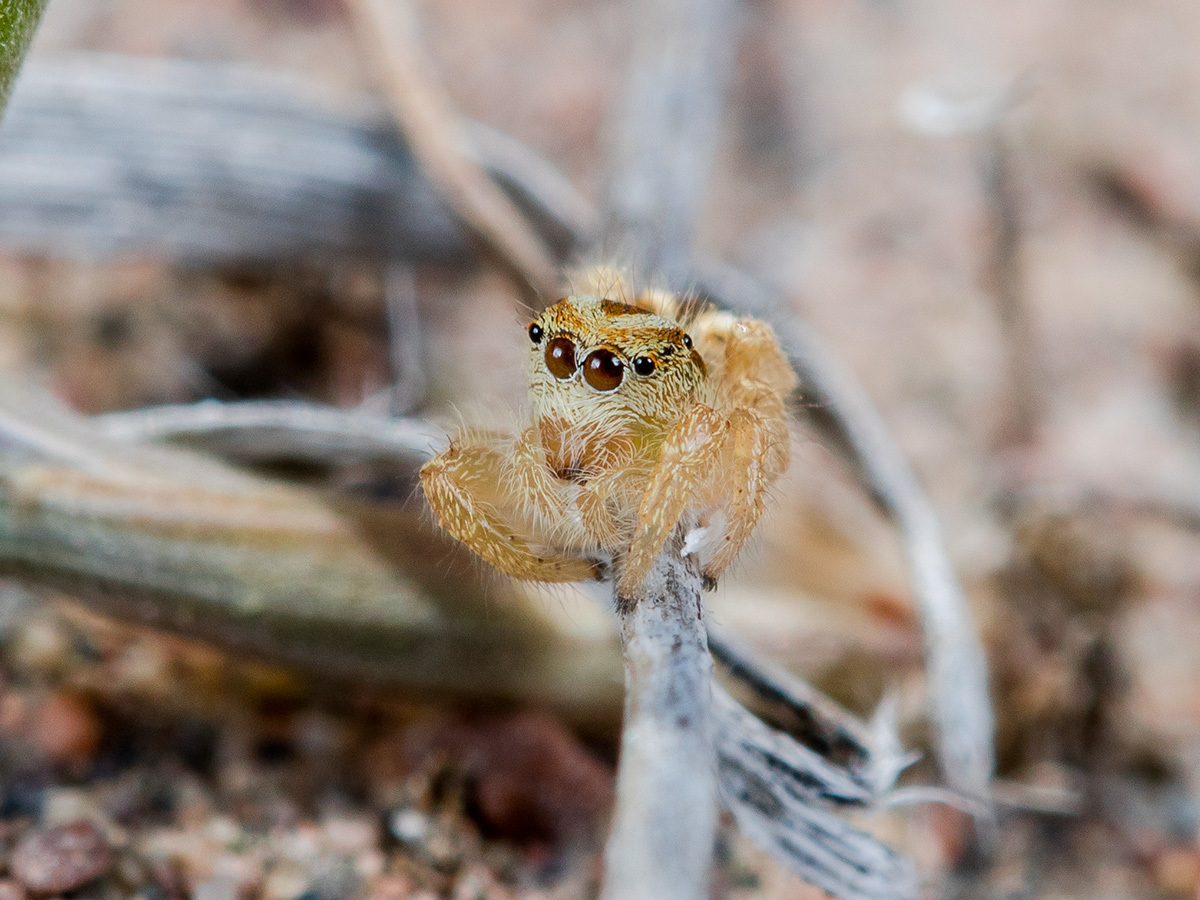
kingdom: Animalia
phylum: Arthropoda
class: Arachnida
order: Araneae
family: Salticidae
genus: Pseudomogrus
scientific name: Pseudomogrus zhilgaensis
